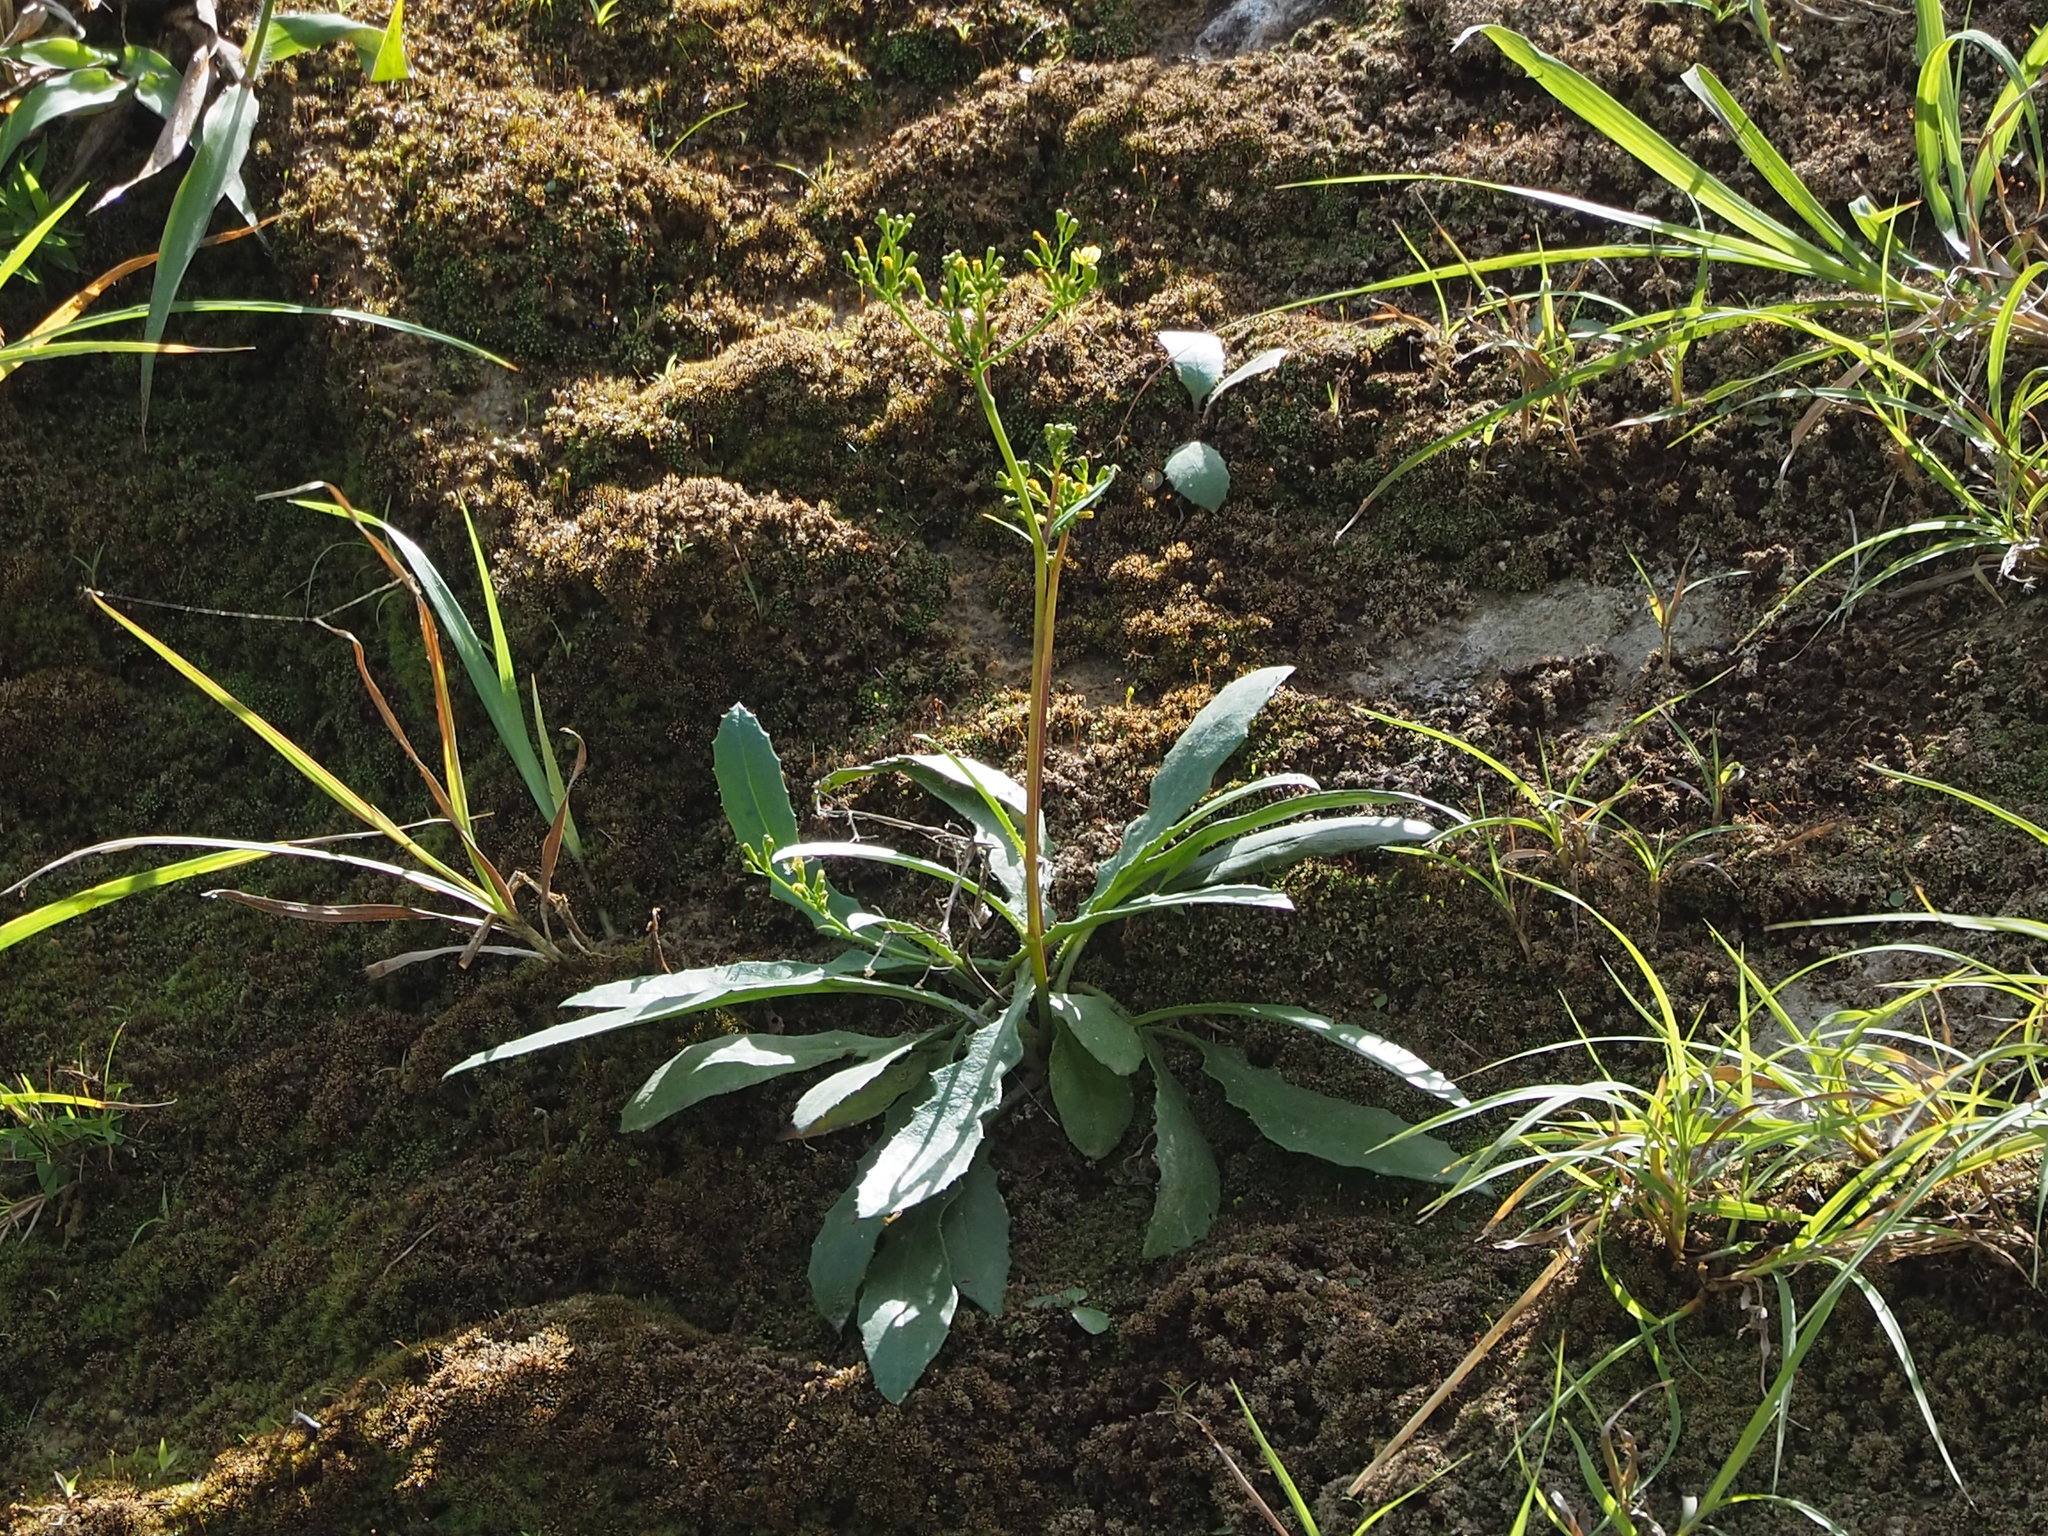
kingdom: Plantae
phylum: Tracheophyta
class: Magnoliopsida
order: Asterales
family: Asteraceae
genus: Ixeridium
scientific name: Ixeridium laevigatum
